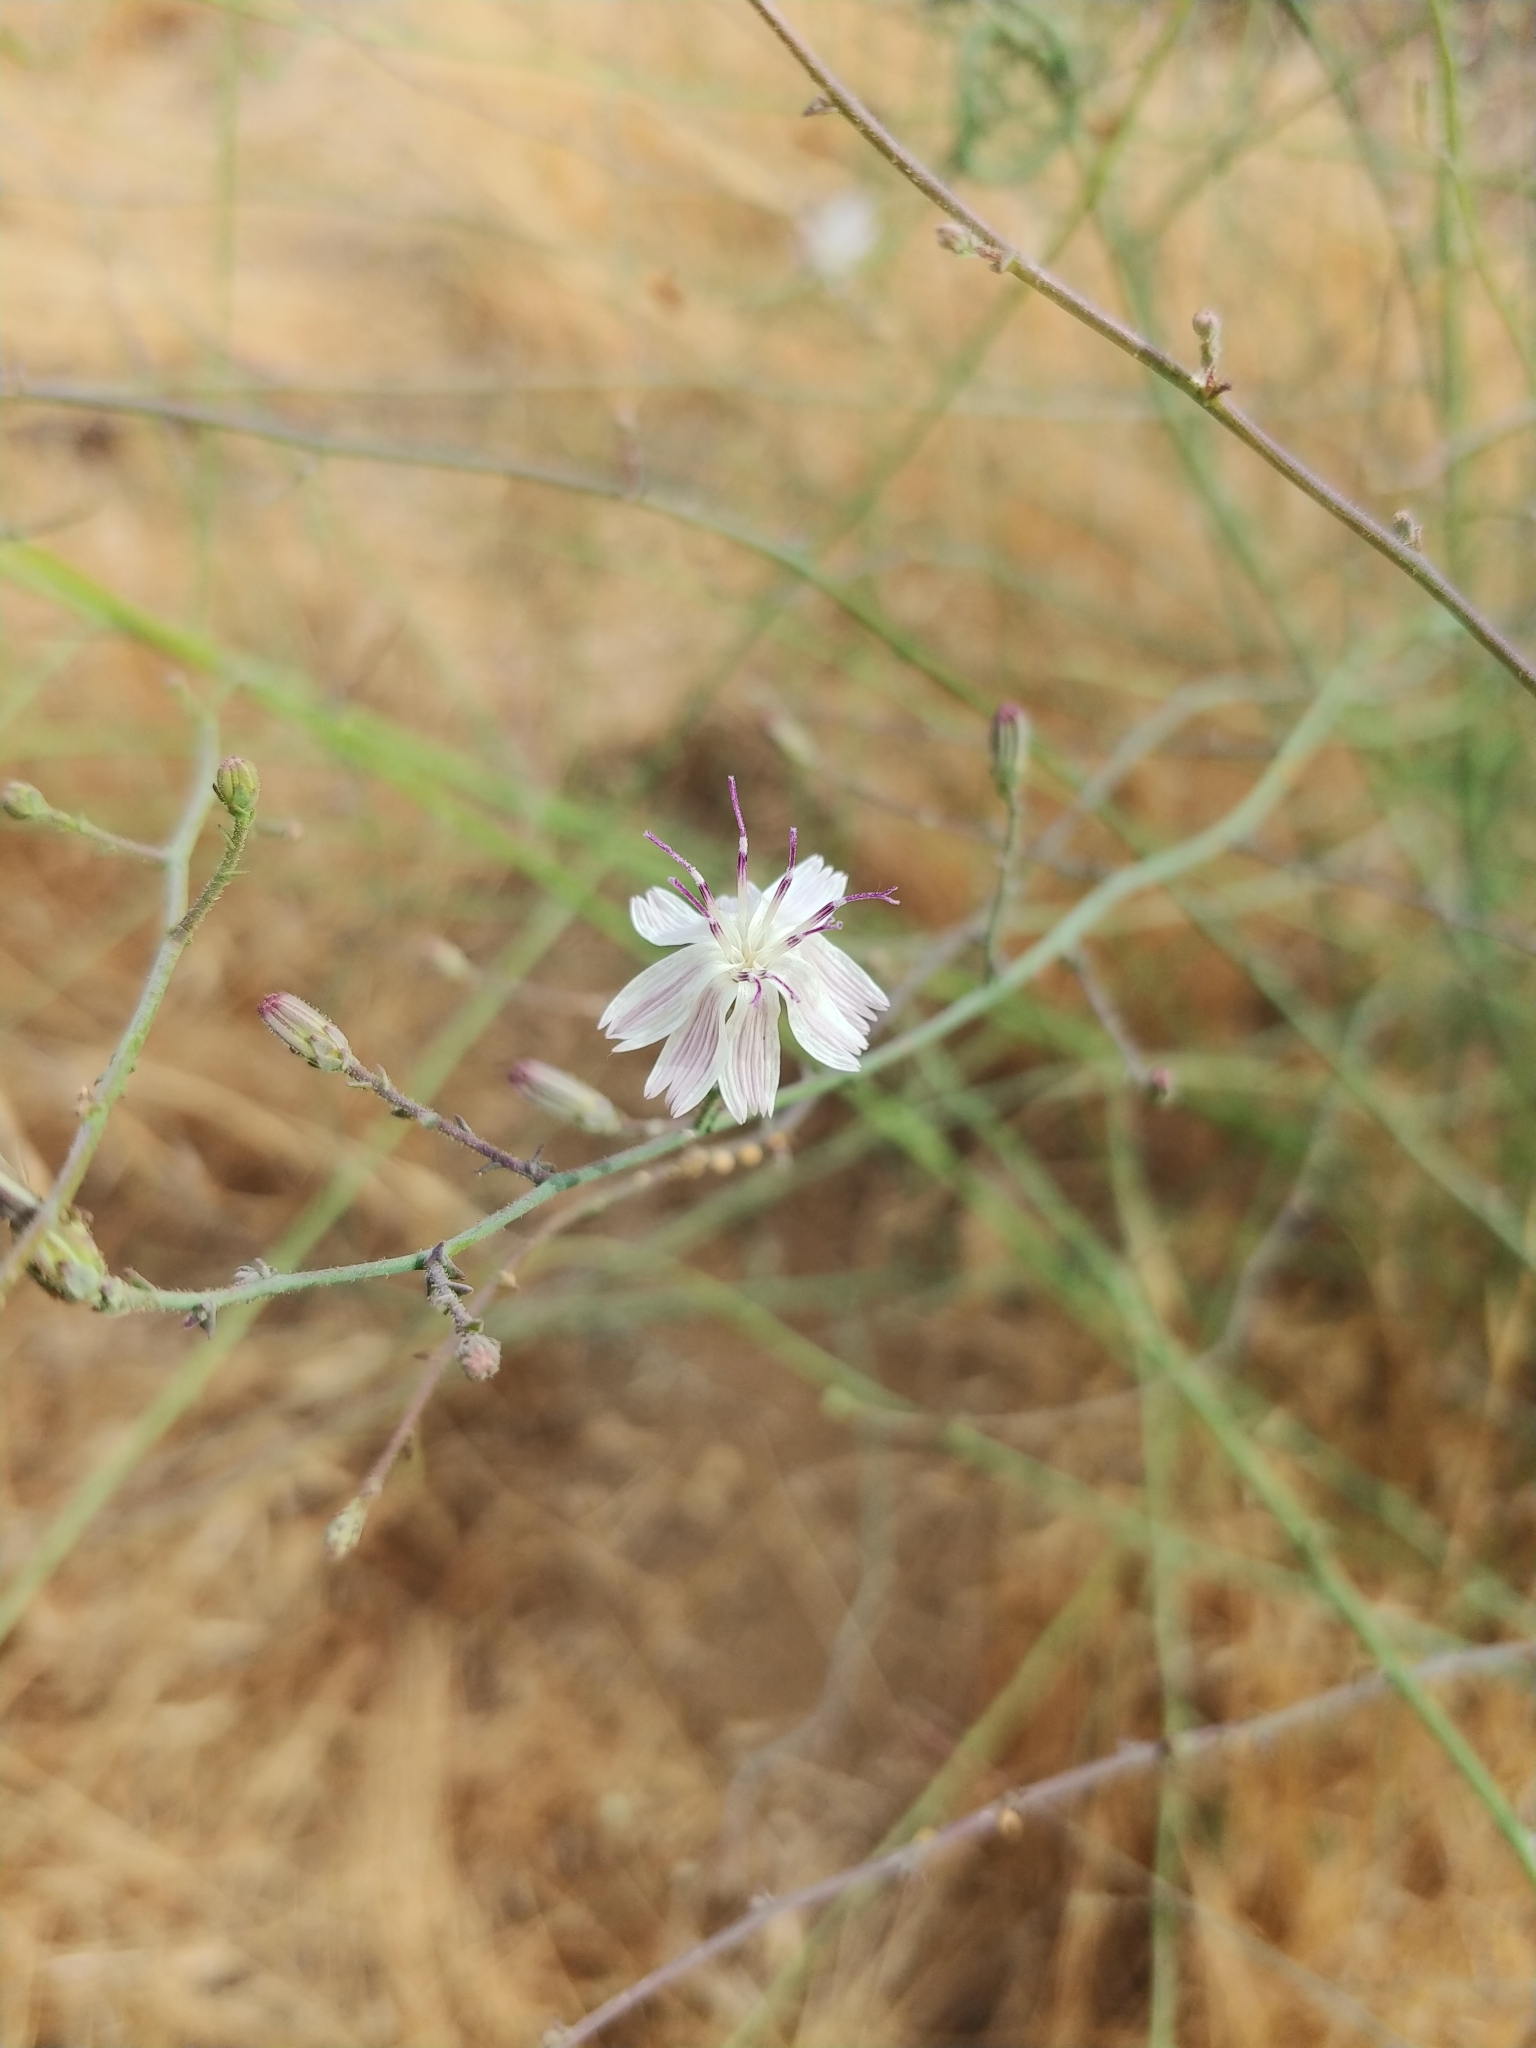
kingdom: Plantae
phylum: Tracheophyta
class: Magnoliopsida
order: Asterales
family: Asteraceae
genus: Stephanomeria
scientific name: Stephanomeria diegensis
